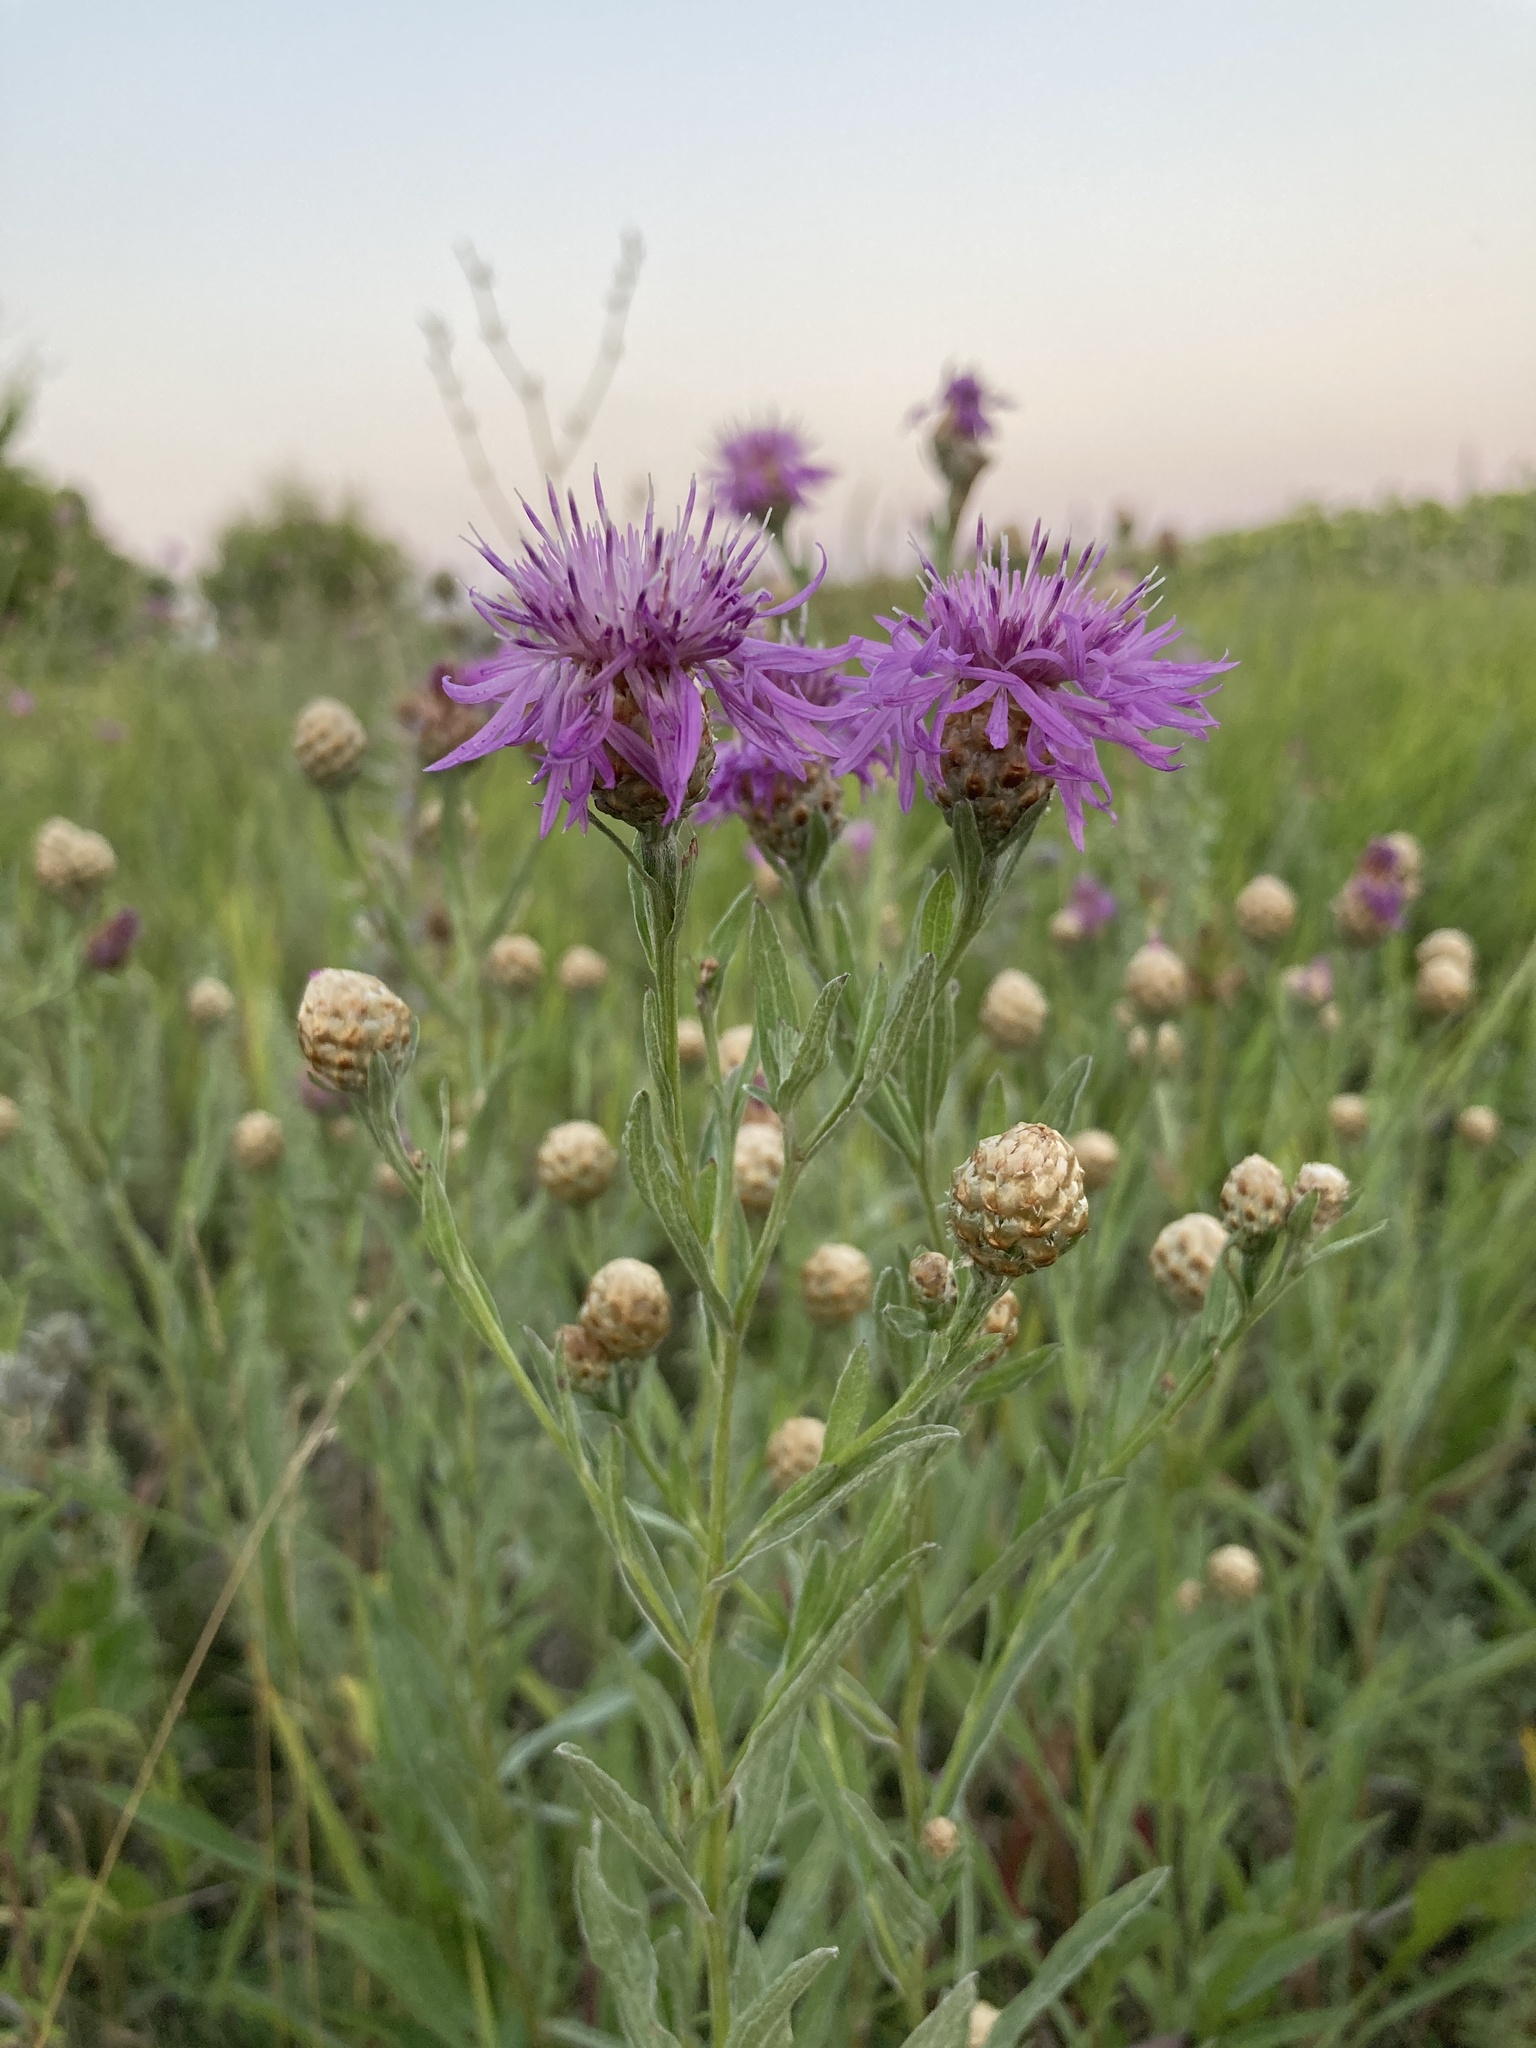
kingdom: Plantae
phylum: Tracheophyta
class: Magnoliopsida
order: Asterales
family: Asteraceae
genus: Centaurea
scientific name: Centaurea jacea
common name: Brown knapweed
